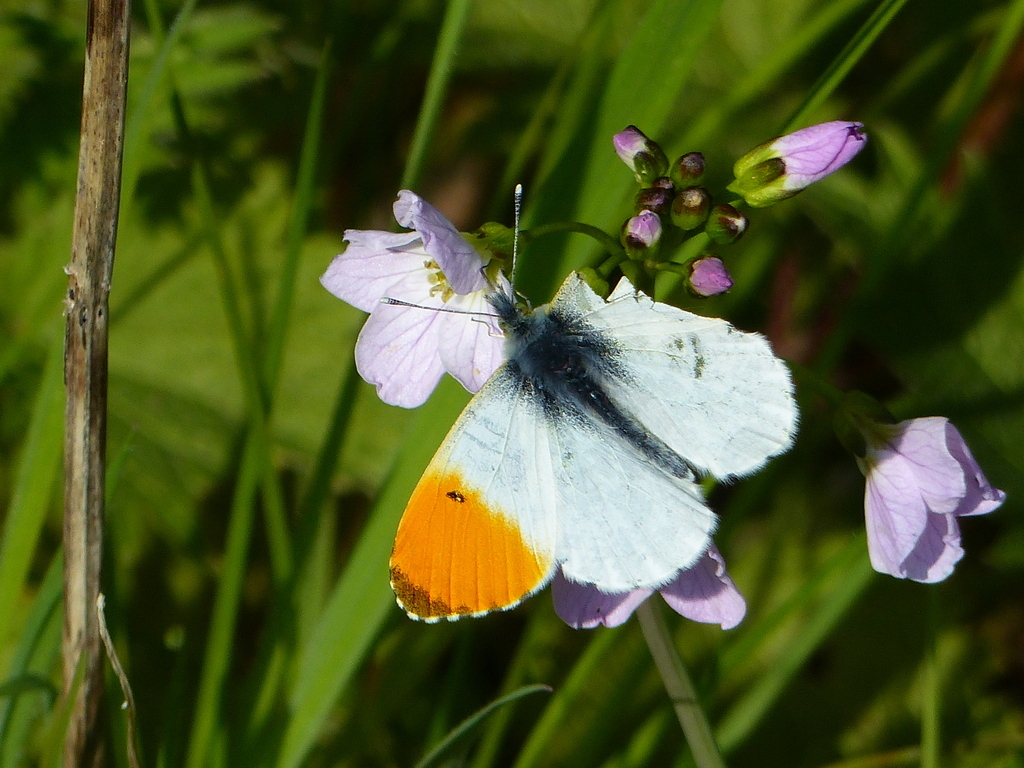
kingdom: Animalia
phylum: Arthropoda
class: Insecta
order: Lepidoptera
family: Pieridae
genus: Anthocharis
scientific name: Anthocharis cardamines
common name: Orange-tip
